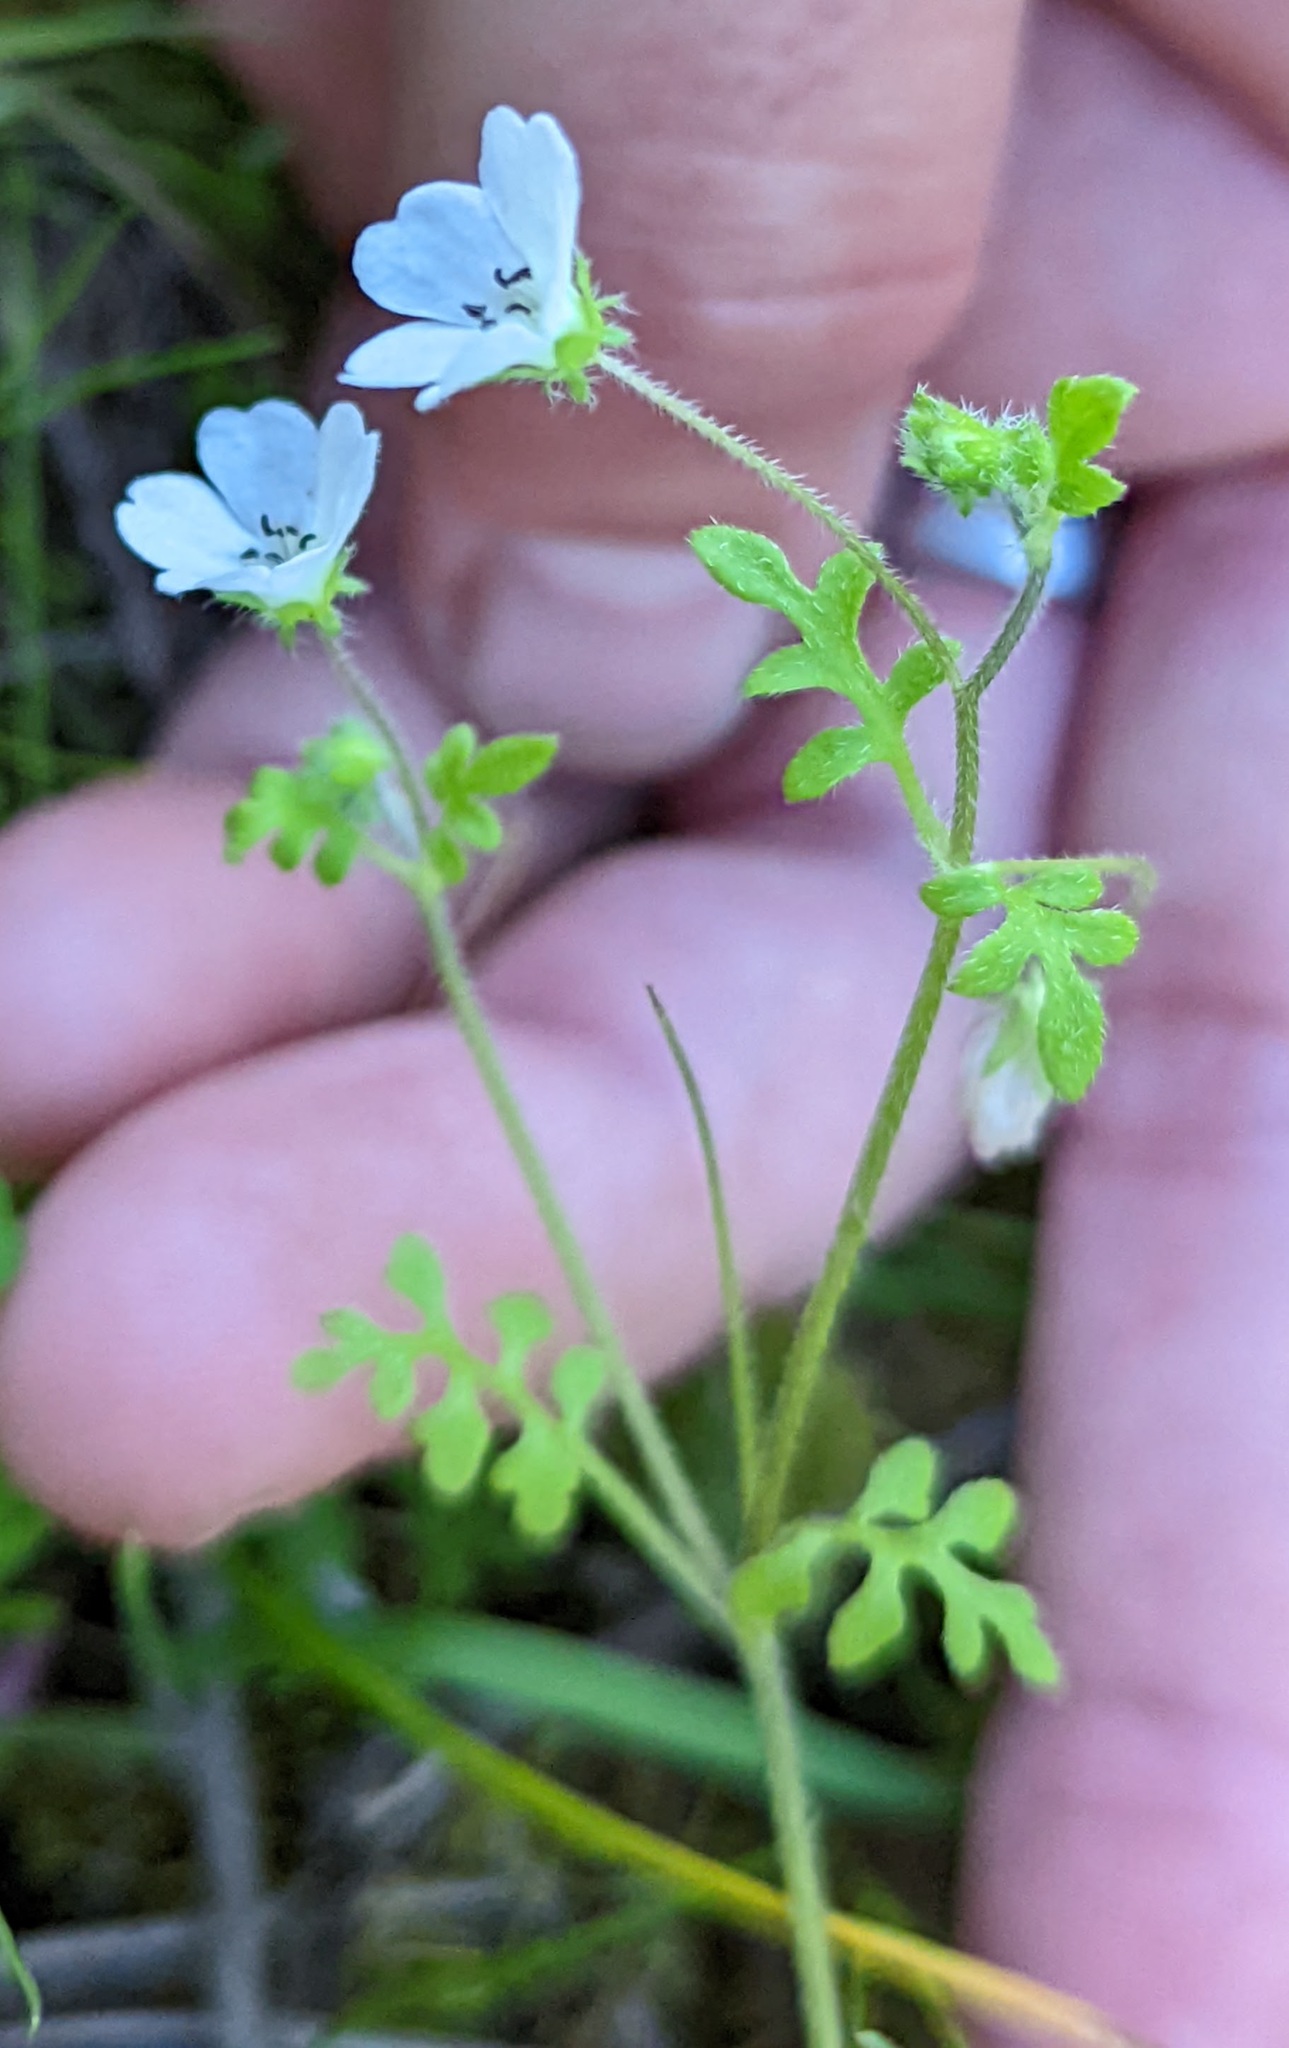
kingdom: Plantae
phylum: Tracheophyta
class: Magnoliopsida
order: Boraginales
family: Hydrophyllaceae
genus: Nemophila
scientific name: Nemophila heterophylla
